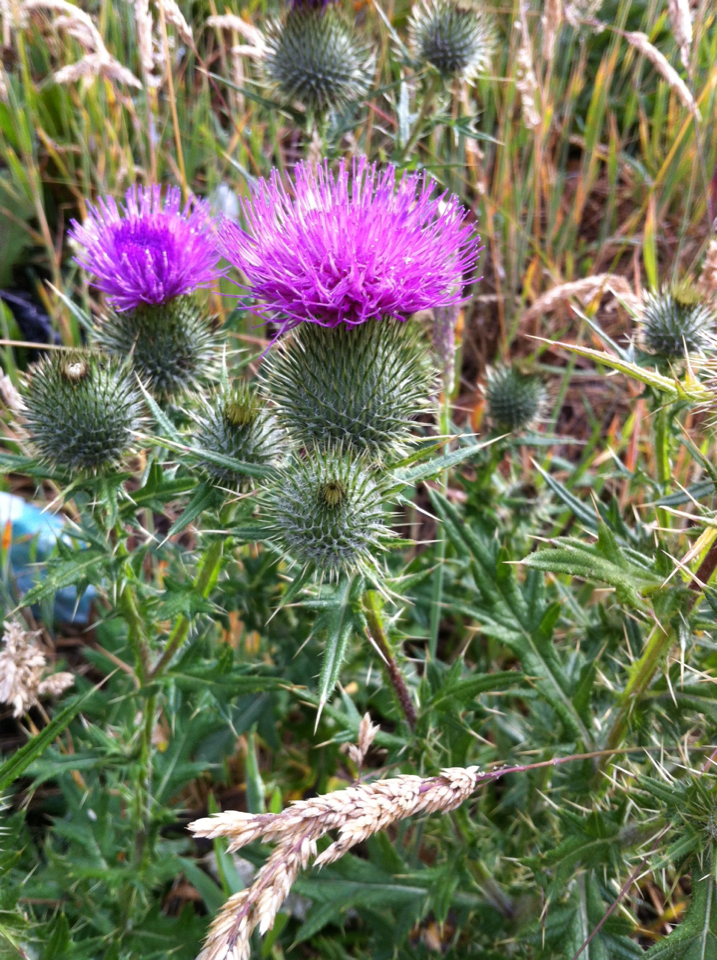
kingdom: Plantae
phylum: Tracheophyta
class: Magnoliopsida
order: Asterales
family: Asteraceae
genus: Cirsium
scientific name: Cirsium vulgare
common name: Bull thistle
